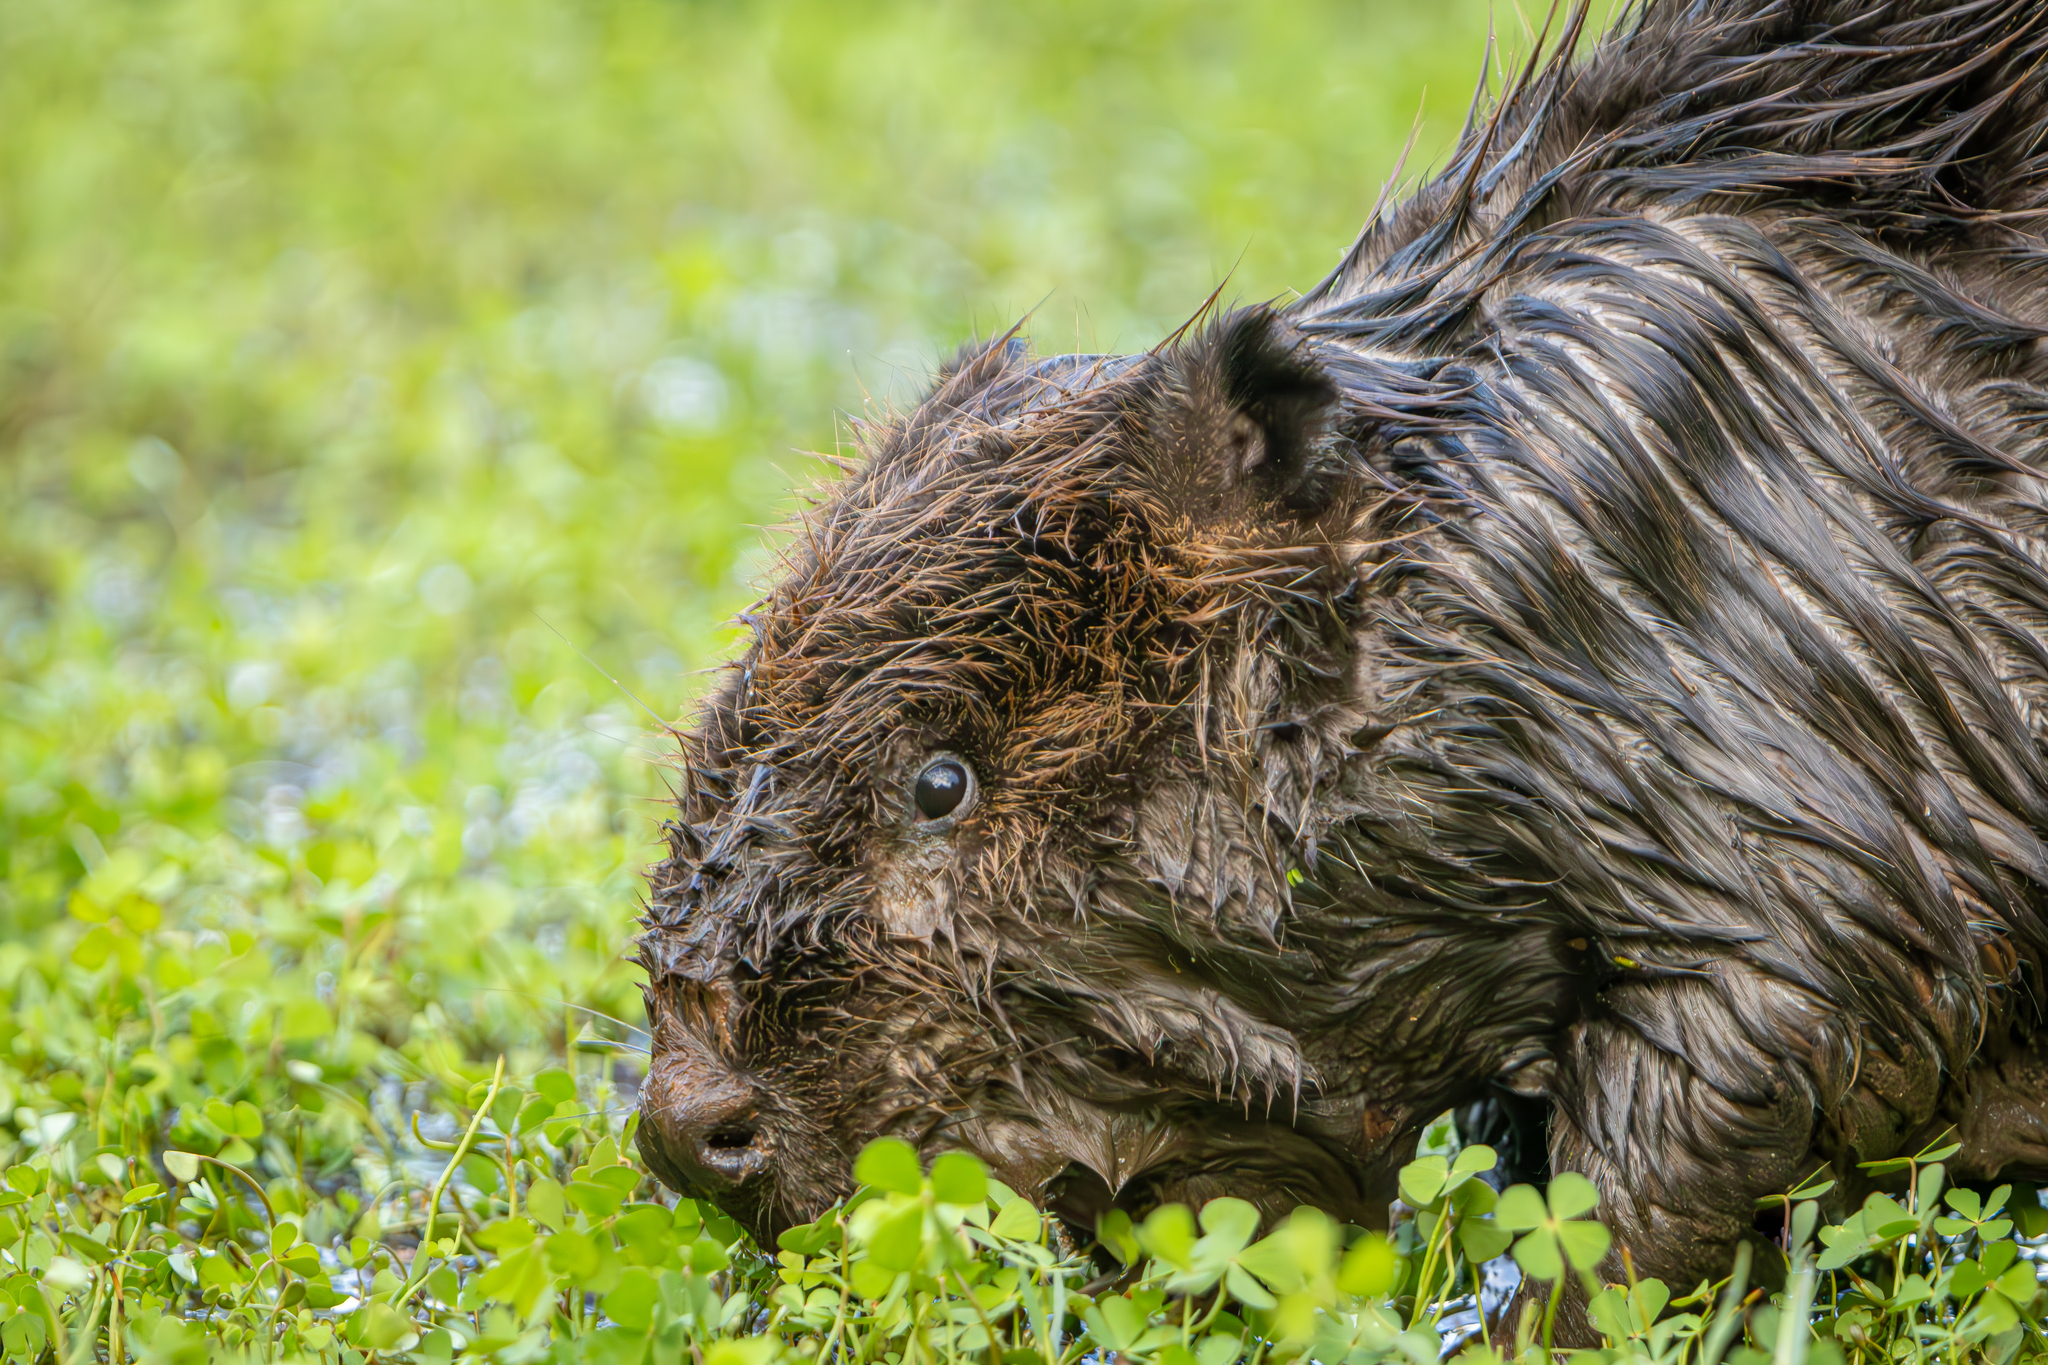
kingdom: Animalia
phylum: Chordata
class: Mammalia
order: Rodentia
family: Castoridae
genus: Castor
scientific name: Castor canadensis
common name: American beaver
